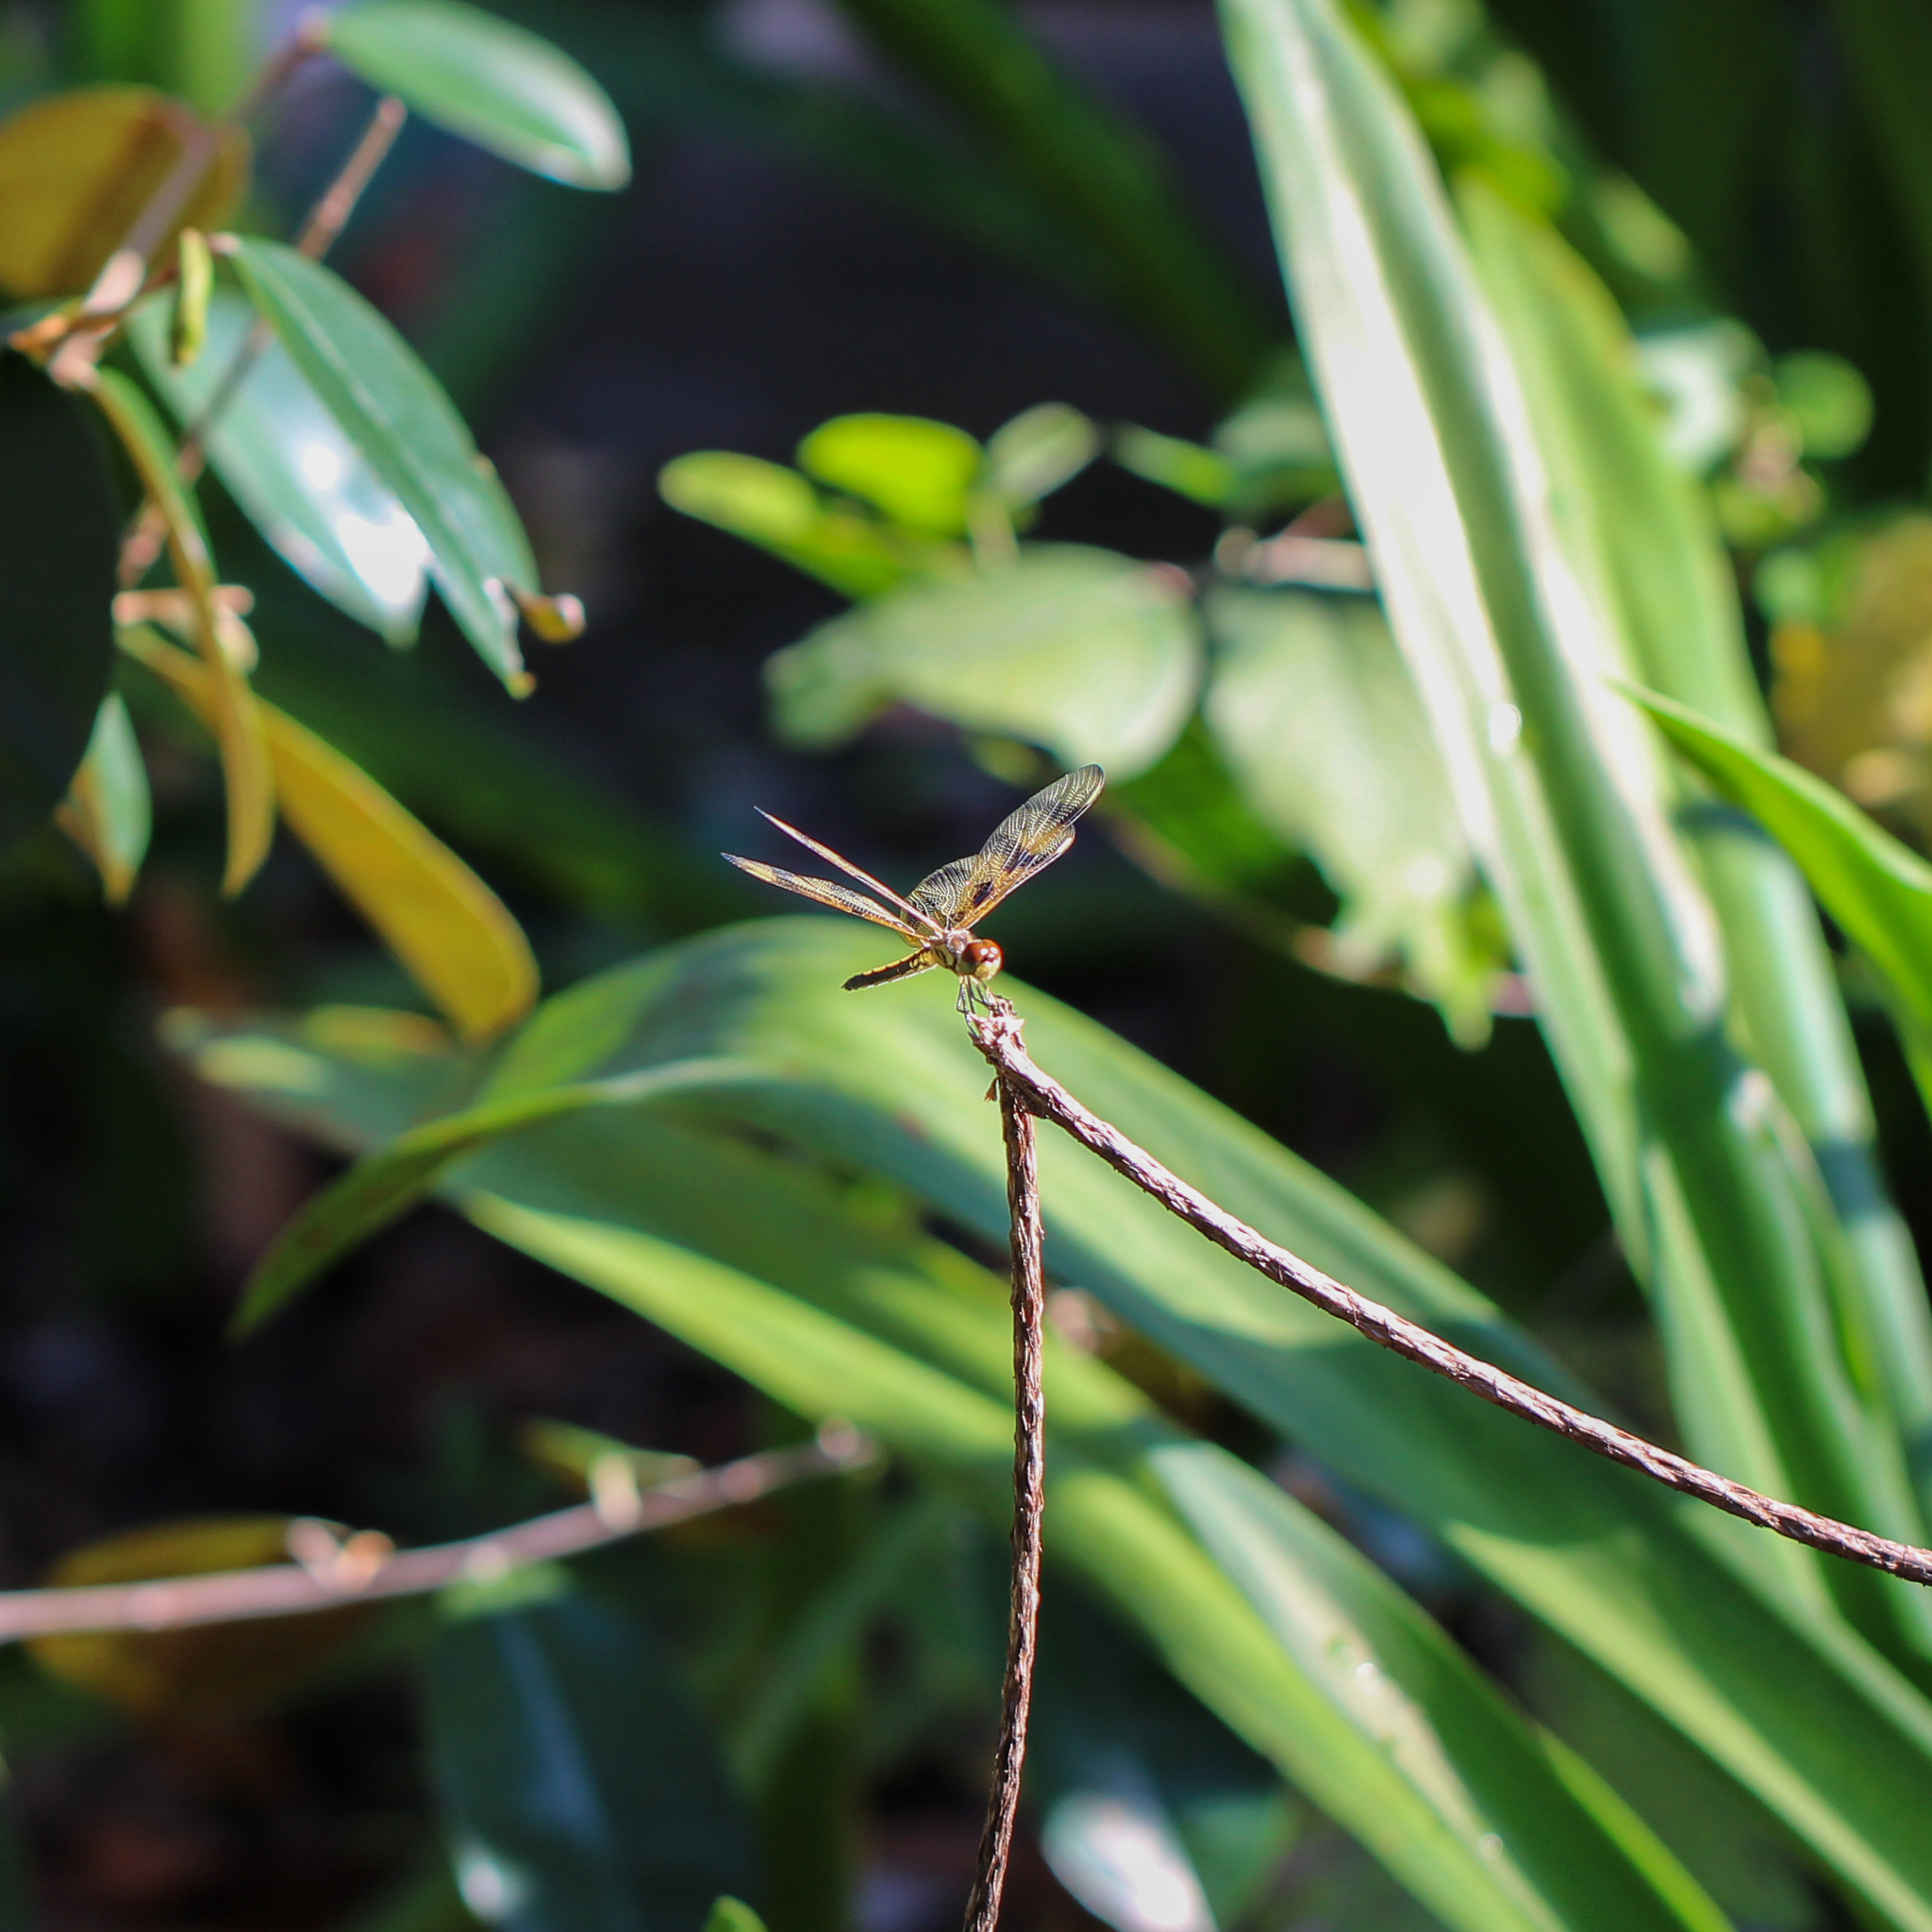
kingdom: Animalia
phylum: Arthropoda
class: Insecta
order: Odonata
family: Libellulidae
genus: Celithemis
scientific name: Celithemis eponina
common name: Halloween pennant
